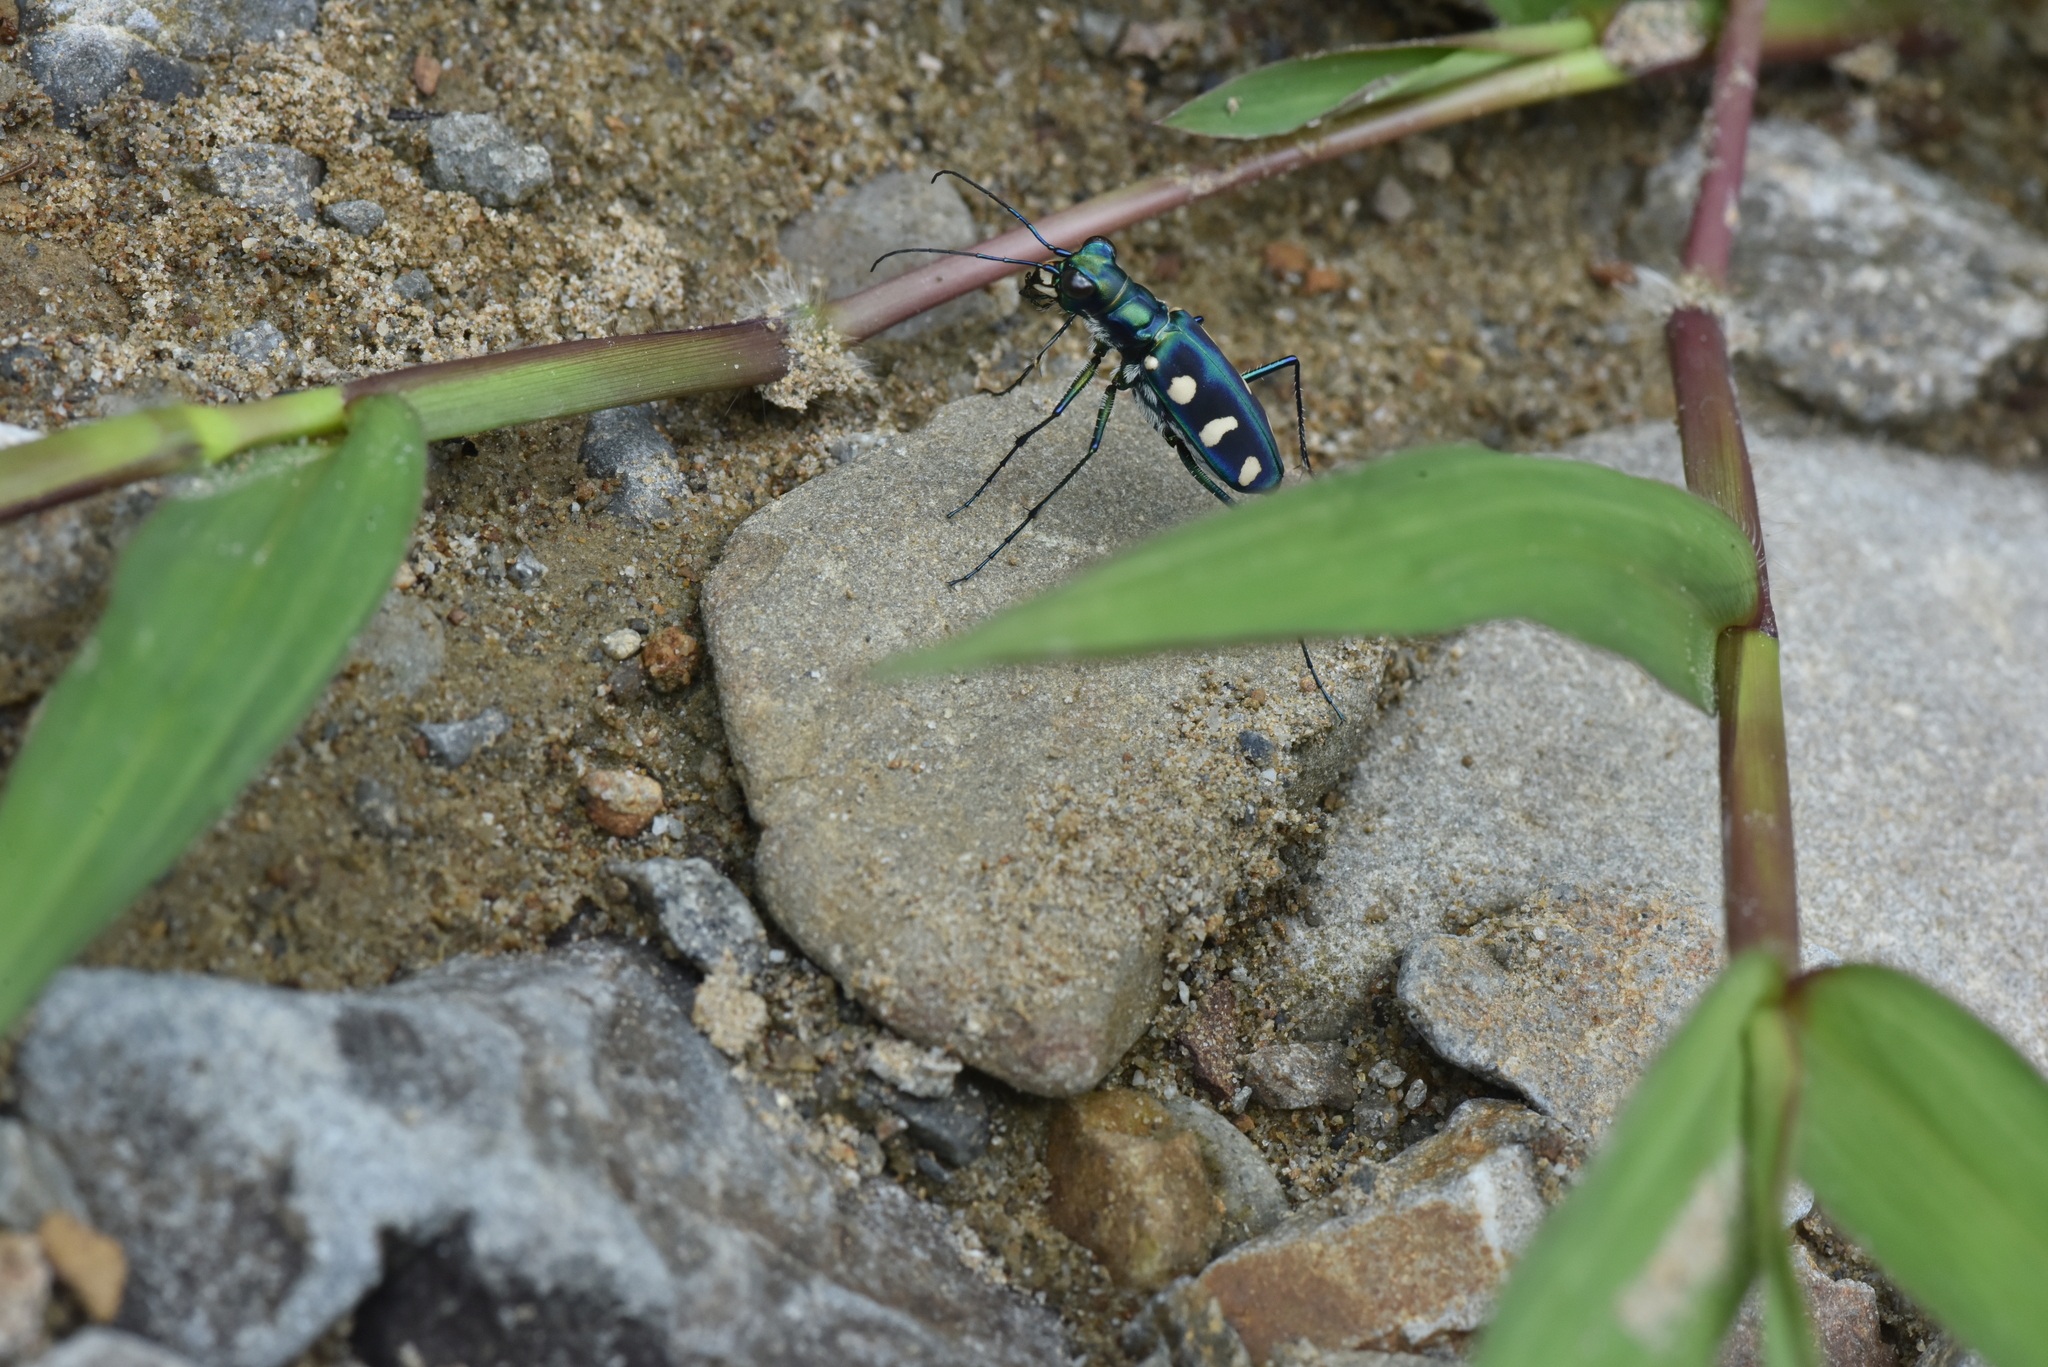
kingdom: Animalia
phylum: Arthropoda
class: Insecta
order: Coleoptera
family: Carabidae
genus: Cicindela
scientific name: Cicindela batesi
